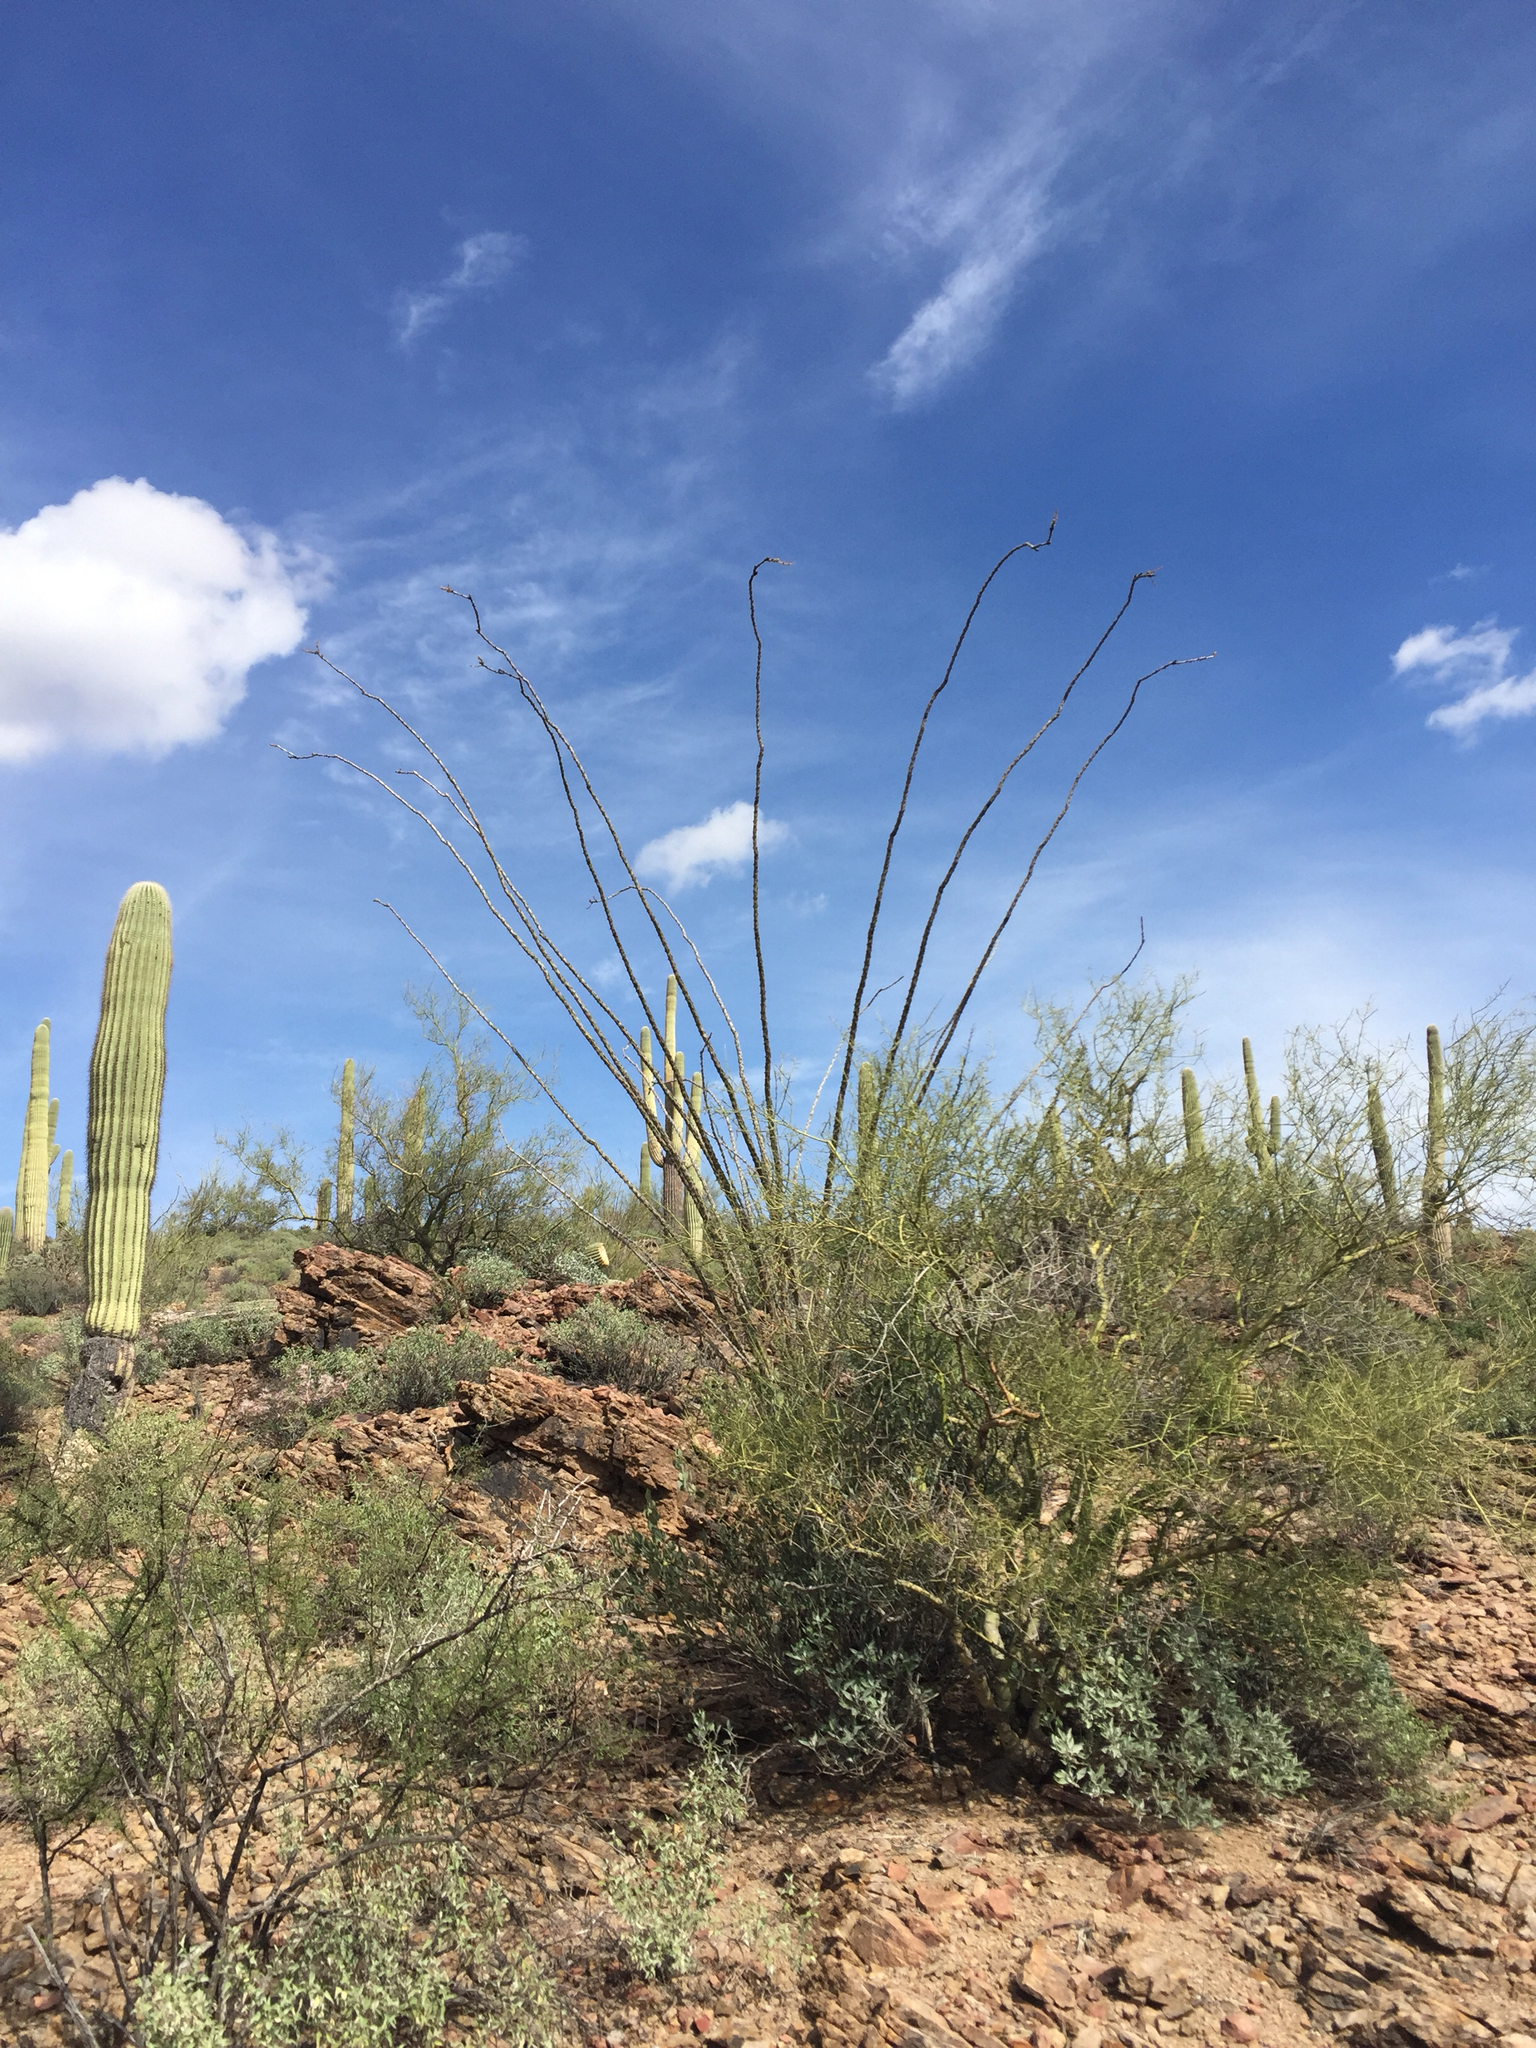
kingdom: Plantae
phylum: Tracheophyta
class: Magnoliopsida
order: Ericales
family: Fouquieriaceae
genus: Fouquieria
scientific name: Fouquieria splendens
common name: Vine-cactus
